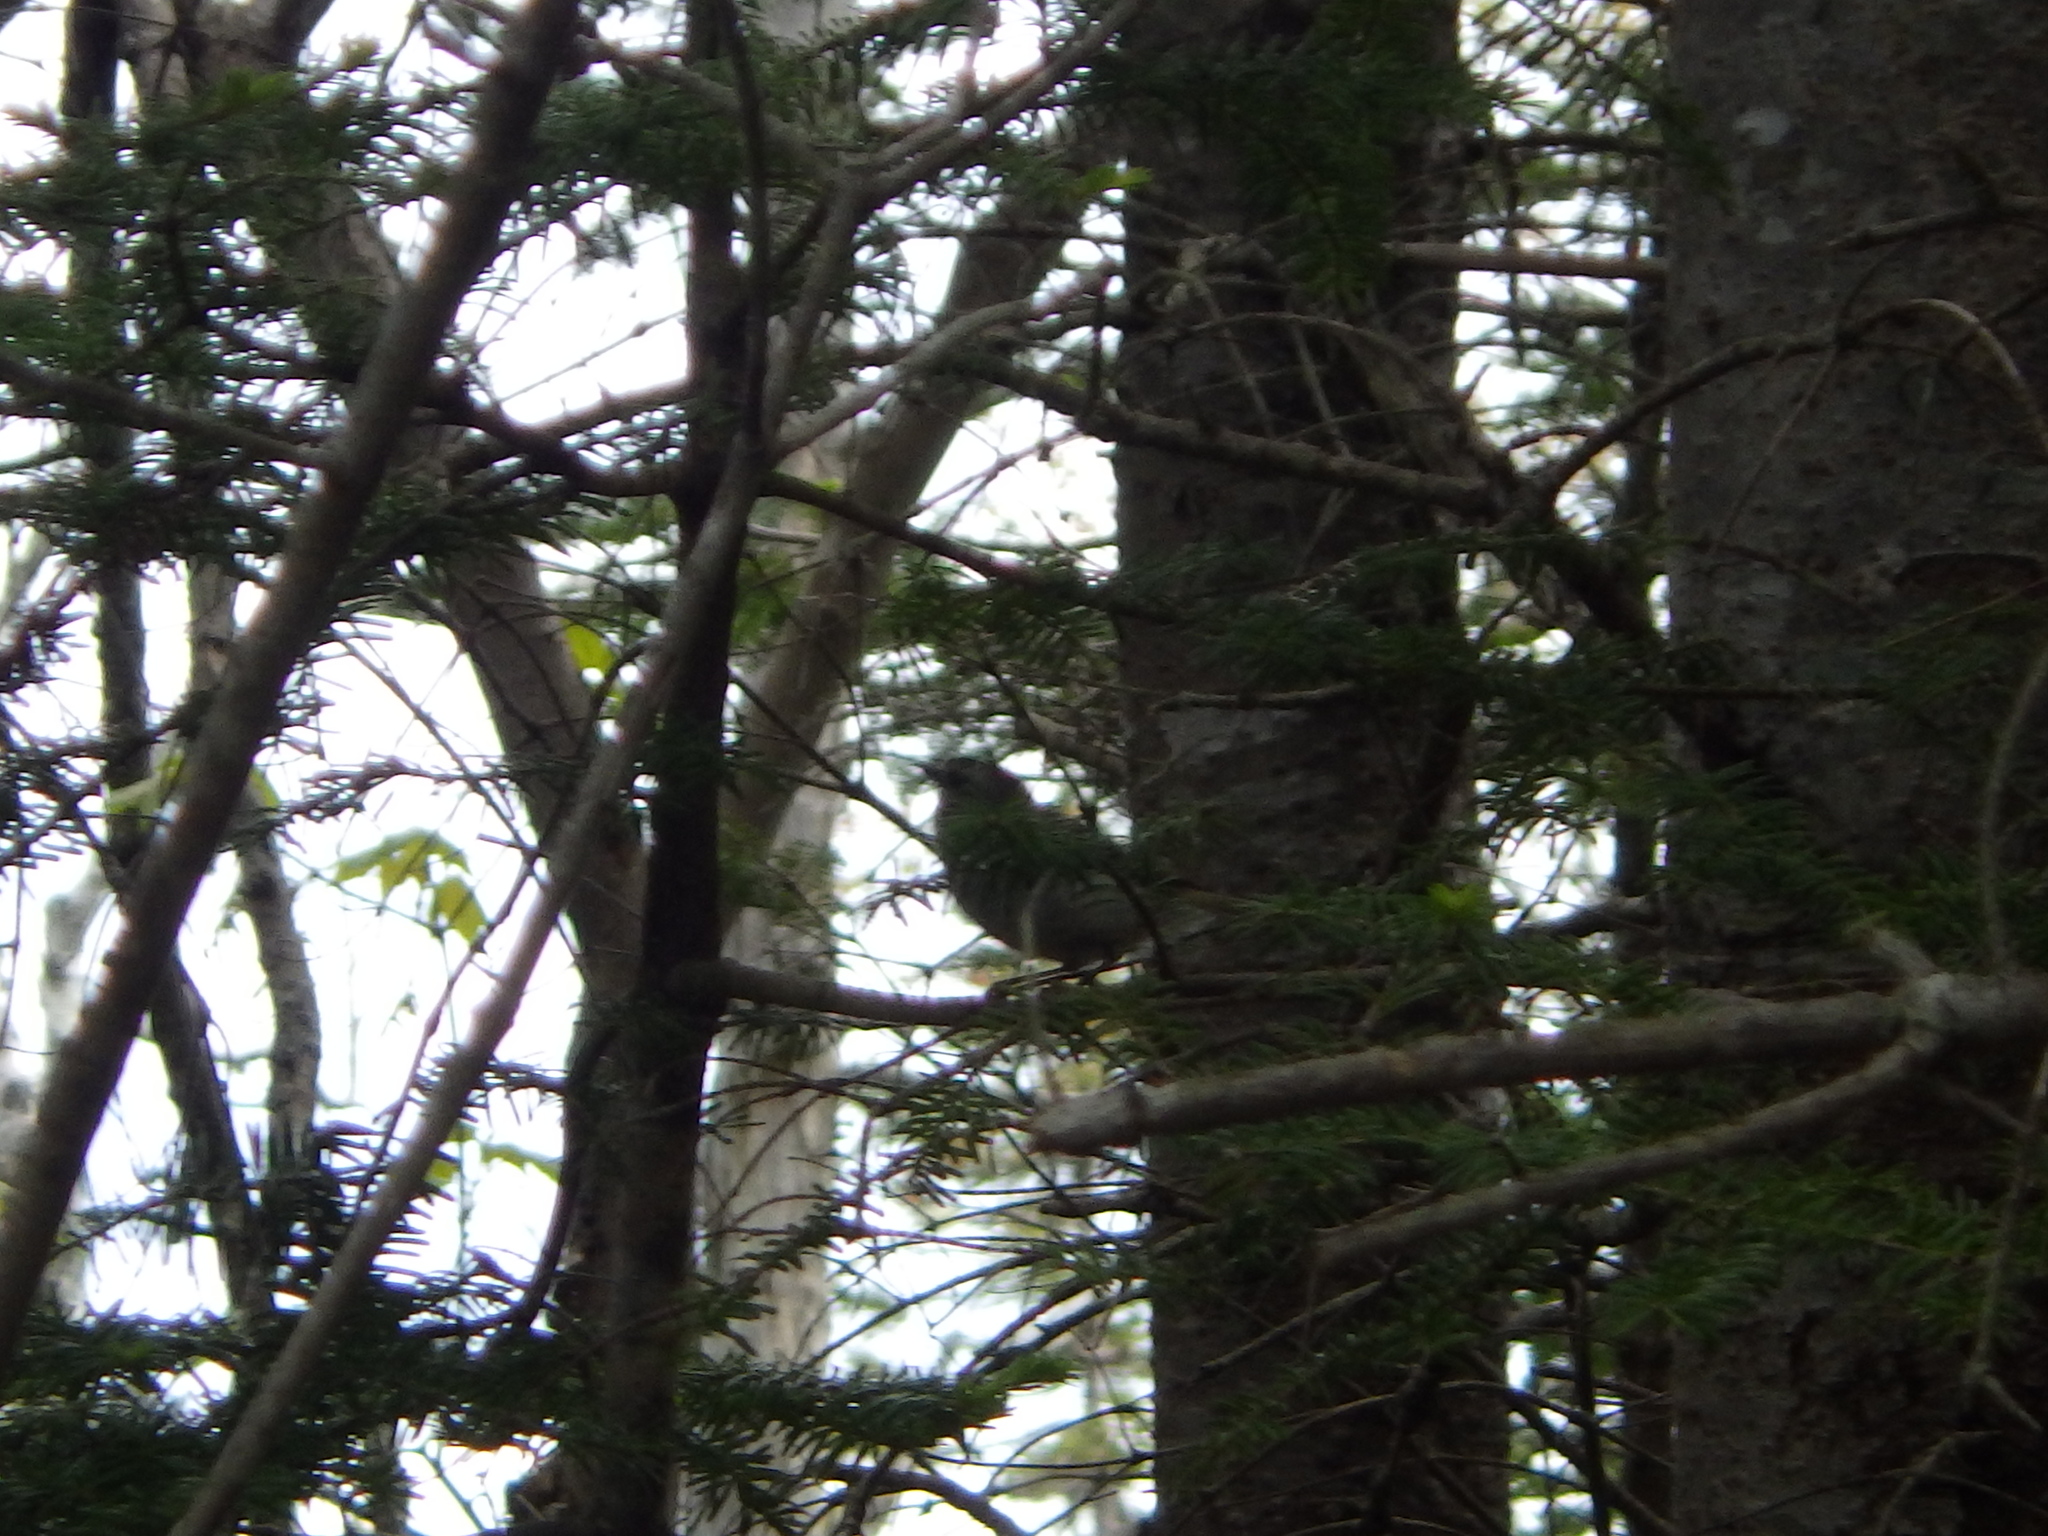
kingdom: Animalia
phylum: Chordata
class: Aves
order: Passeriformes
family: Regulidae
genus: Regulus
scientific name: Regulus satrapa
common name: Golden-crowned kinglet
